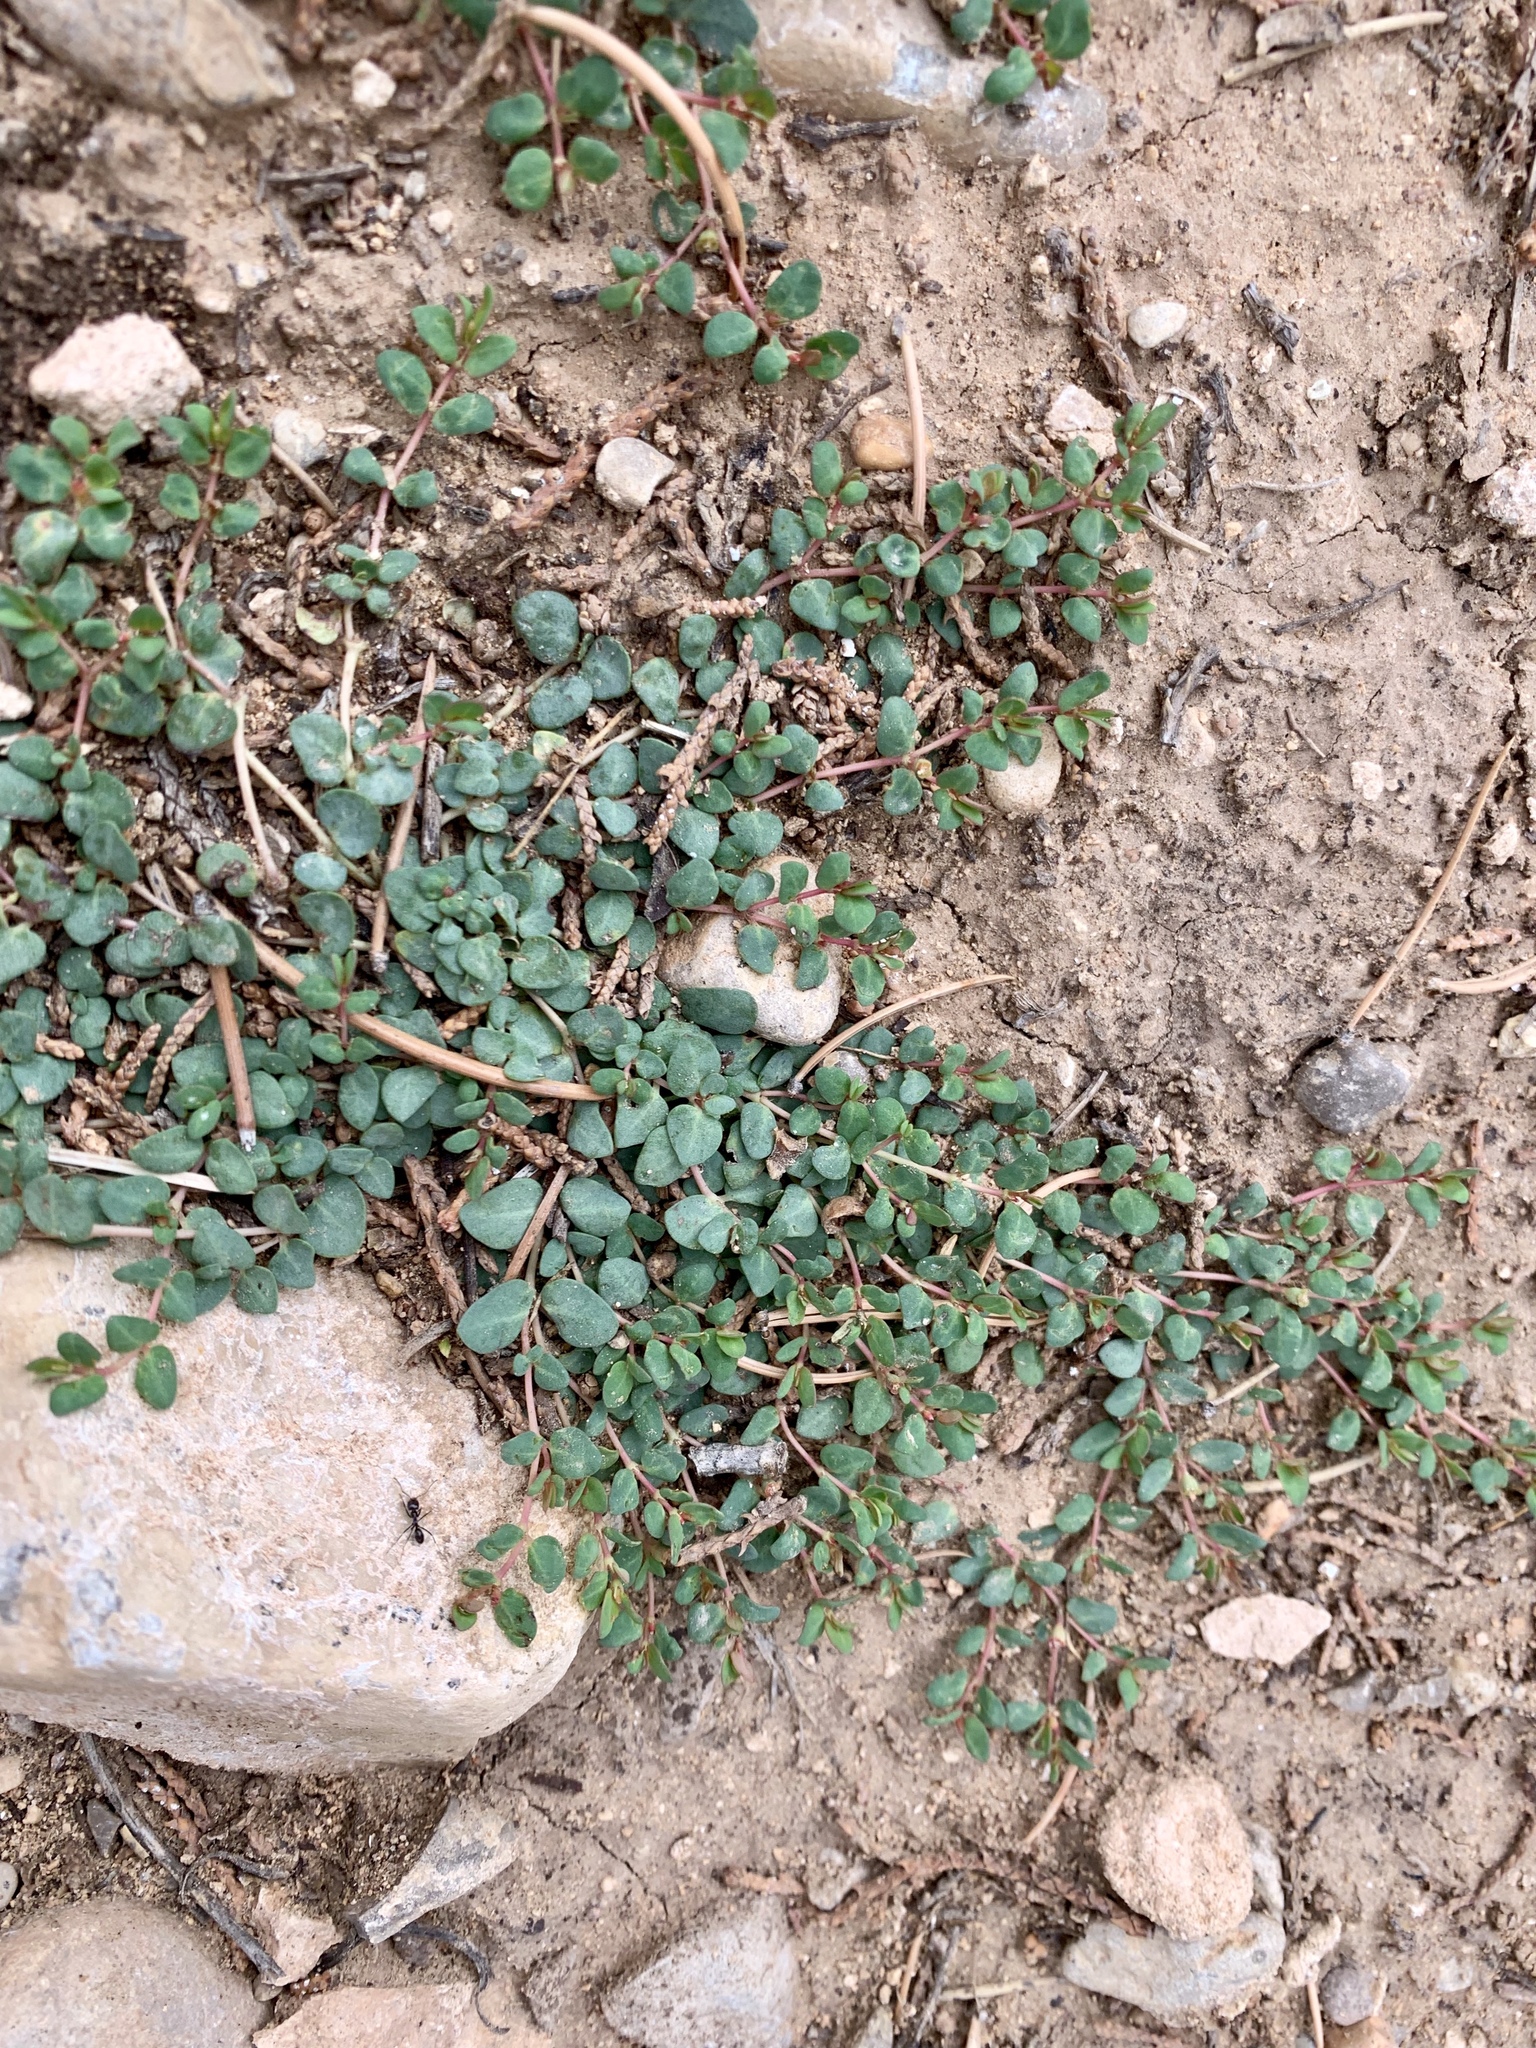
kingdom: Plantae
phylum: Tracheophyta
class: Magnoliopsida
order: Malpighiales
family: Euphorbiaceae
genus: Euphorbia
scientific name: Euphorbia fendleri
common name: Fendler's euphorbia
